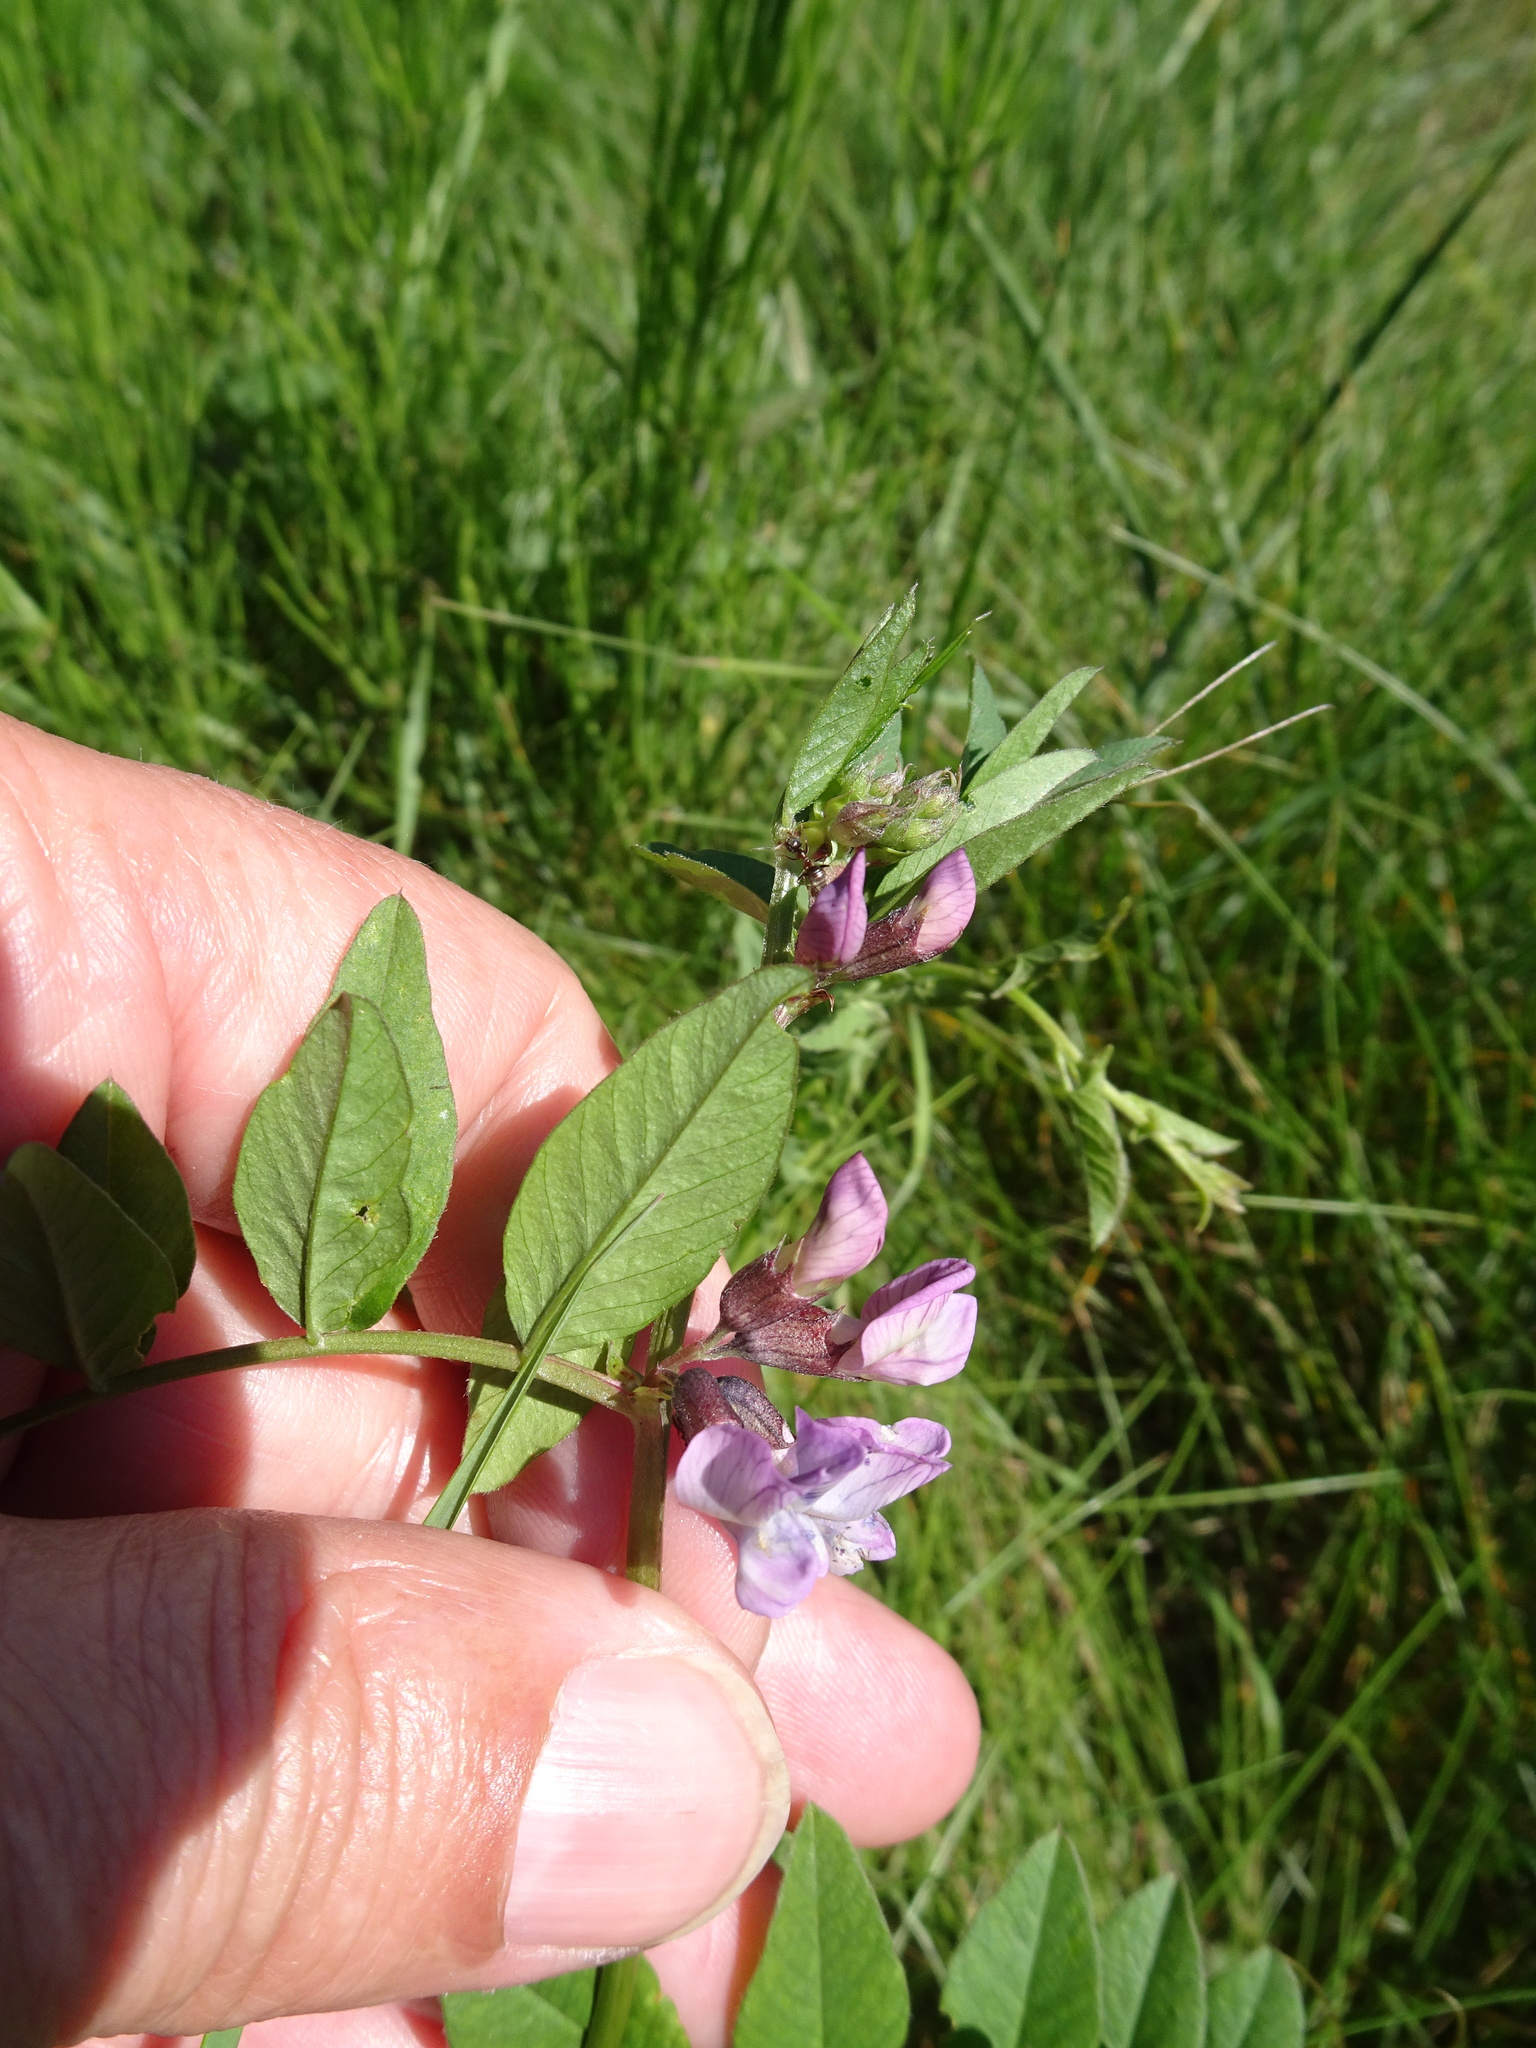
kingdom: Plantae
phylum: Tracheophyta
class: Magnoliopsida
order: Fabales
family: Fabaceae
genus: Vicia
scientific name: Vicia sepium
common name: Bush vetch
